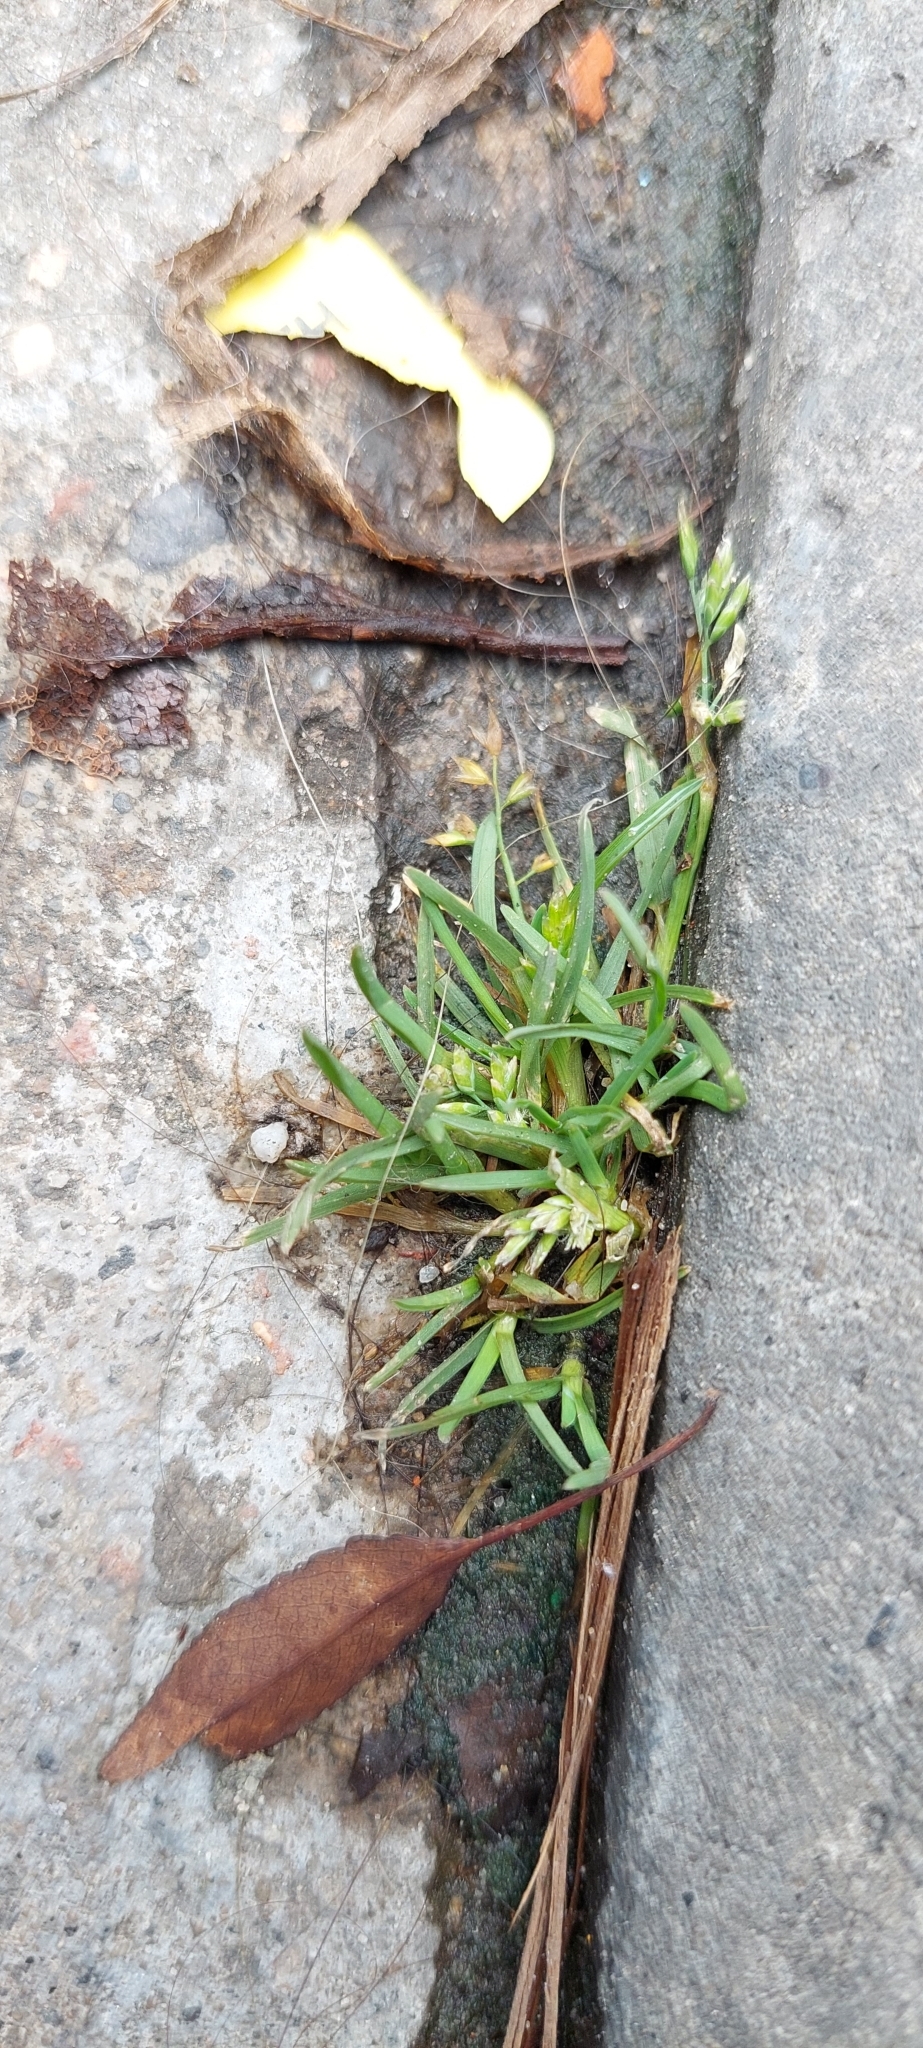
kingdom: Plantae
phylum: Tracheophyta
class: Liliopsida
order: Poales
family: Poaceae
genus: Poa
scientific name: Poa annua
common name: Annual bluegrass
